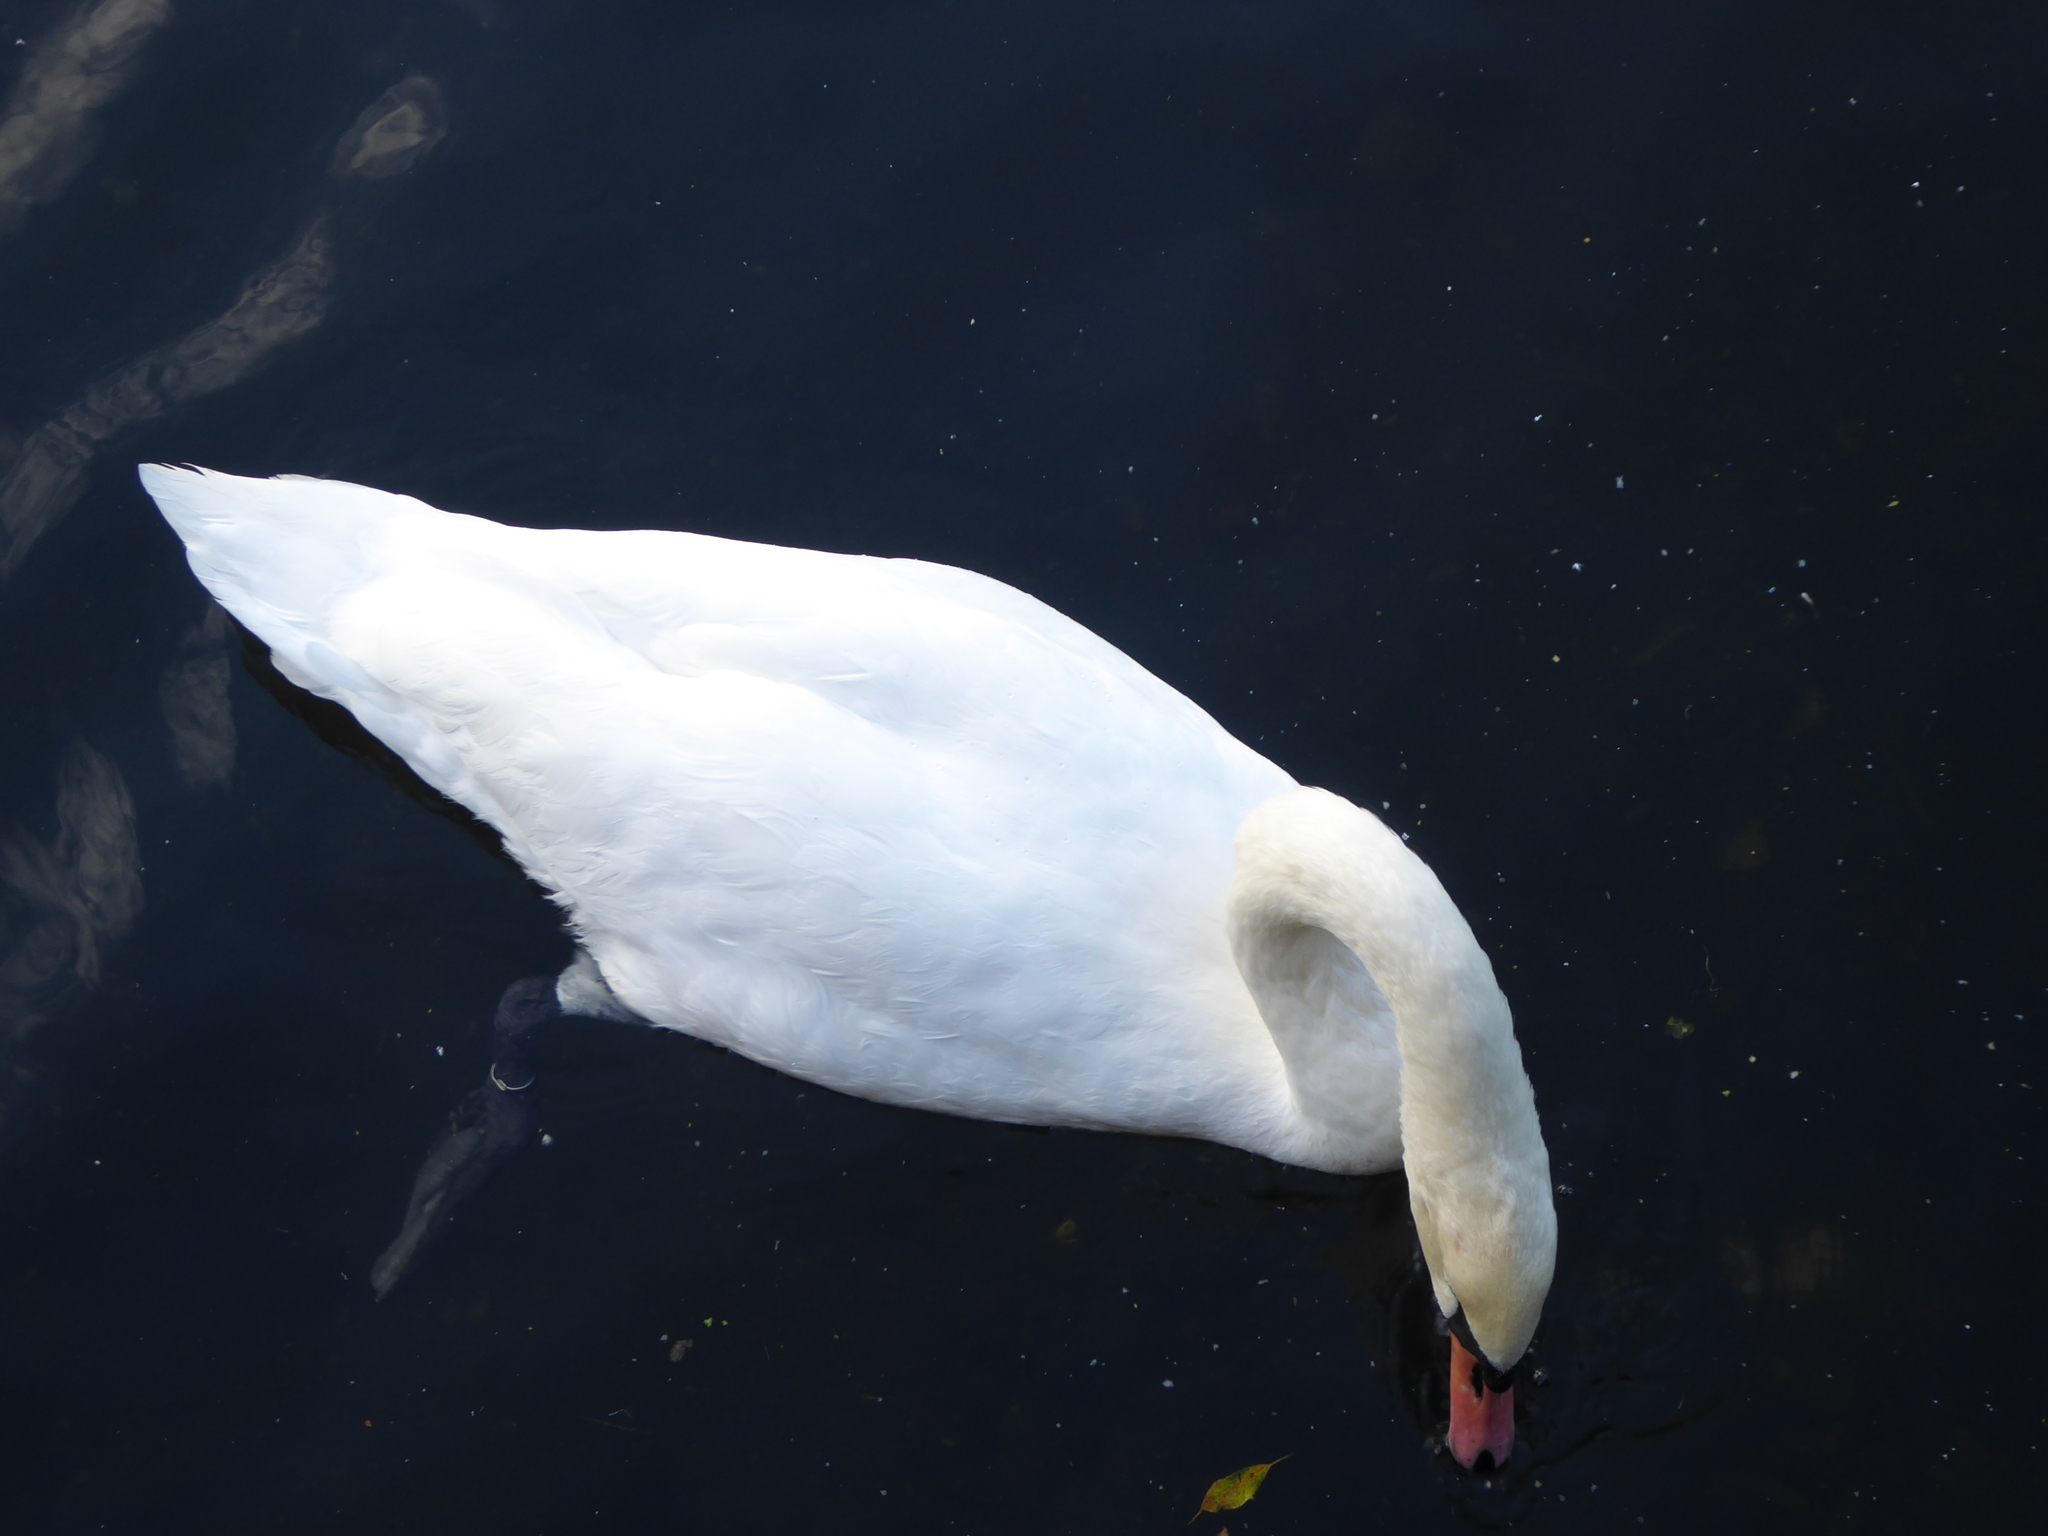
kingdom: Animalia
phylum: Chordata
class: Aves
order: Anseriformes
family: Anatidae
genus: Cygnus
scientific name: Cygnus olor
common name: Mute swan
